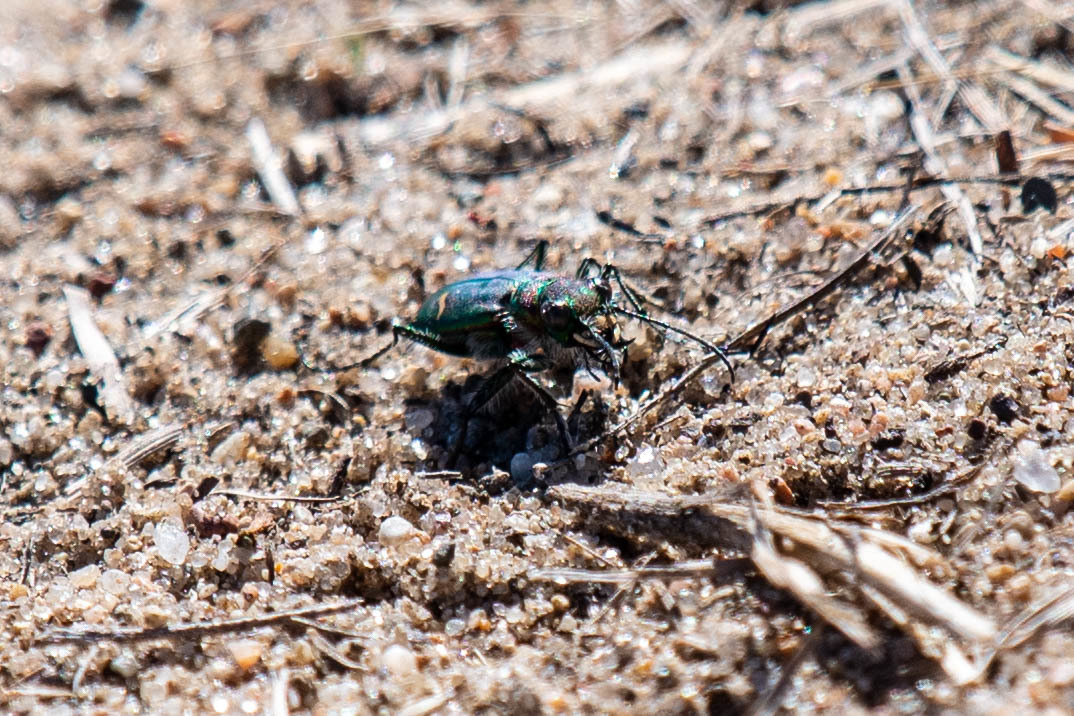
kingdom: Animalia
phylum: Arthropoda
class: Insecta
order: Coleoptera
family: Carabidae
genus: Cicindela
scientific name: Cicindela purpurea
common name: Cow path tiger beetle
